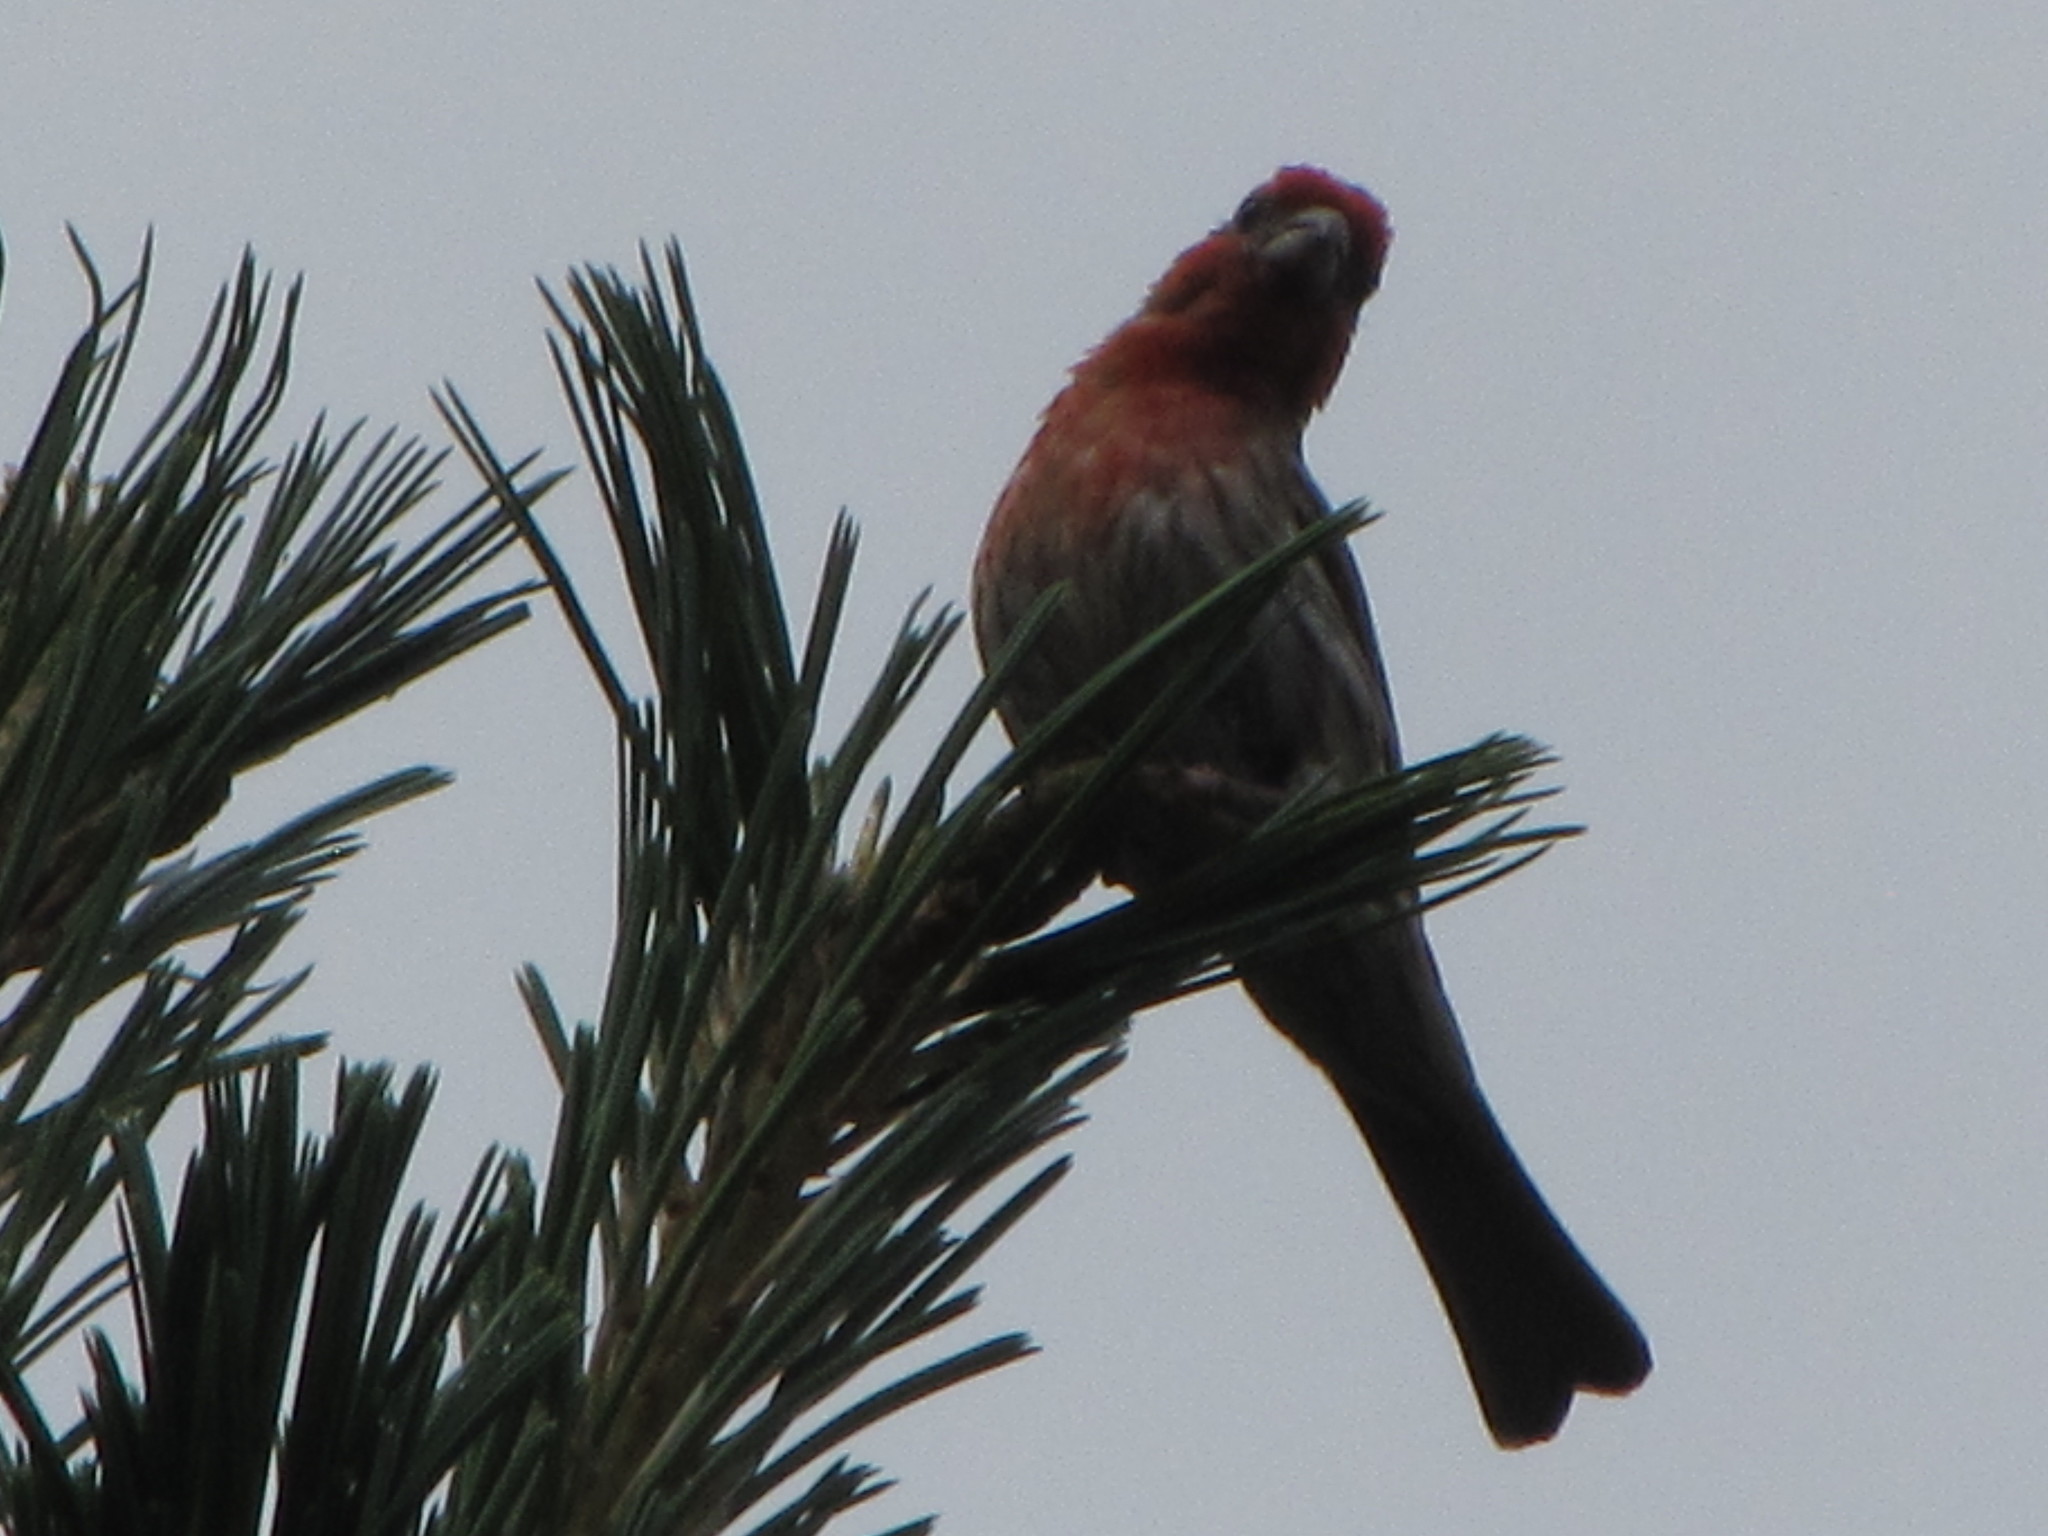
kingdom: Animalia
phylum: Chordata
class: Aves
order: Passeriformes
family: Fringillidae
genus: Haemorhous
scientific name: Haemorhous mexicanus
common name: House finch
